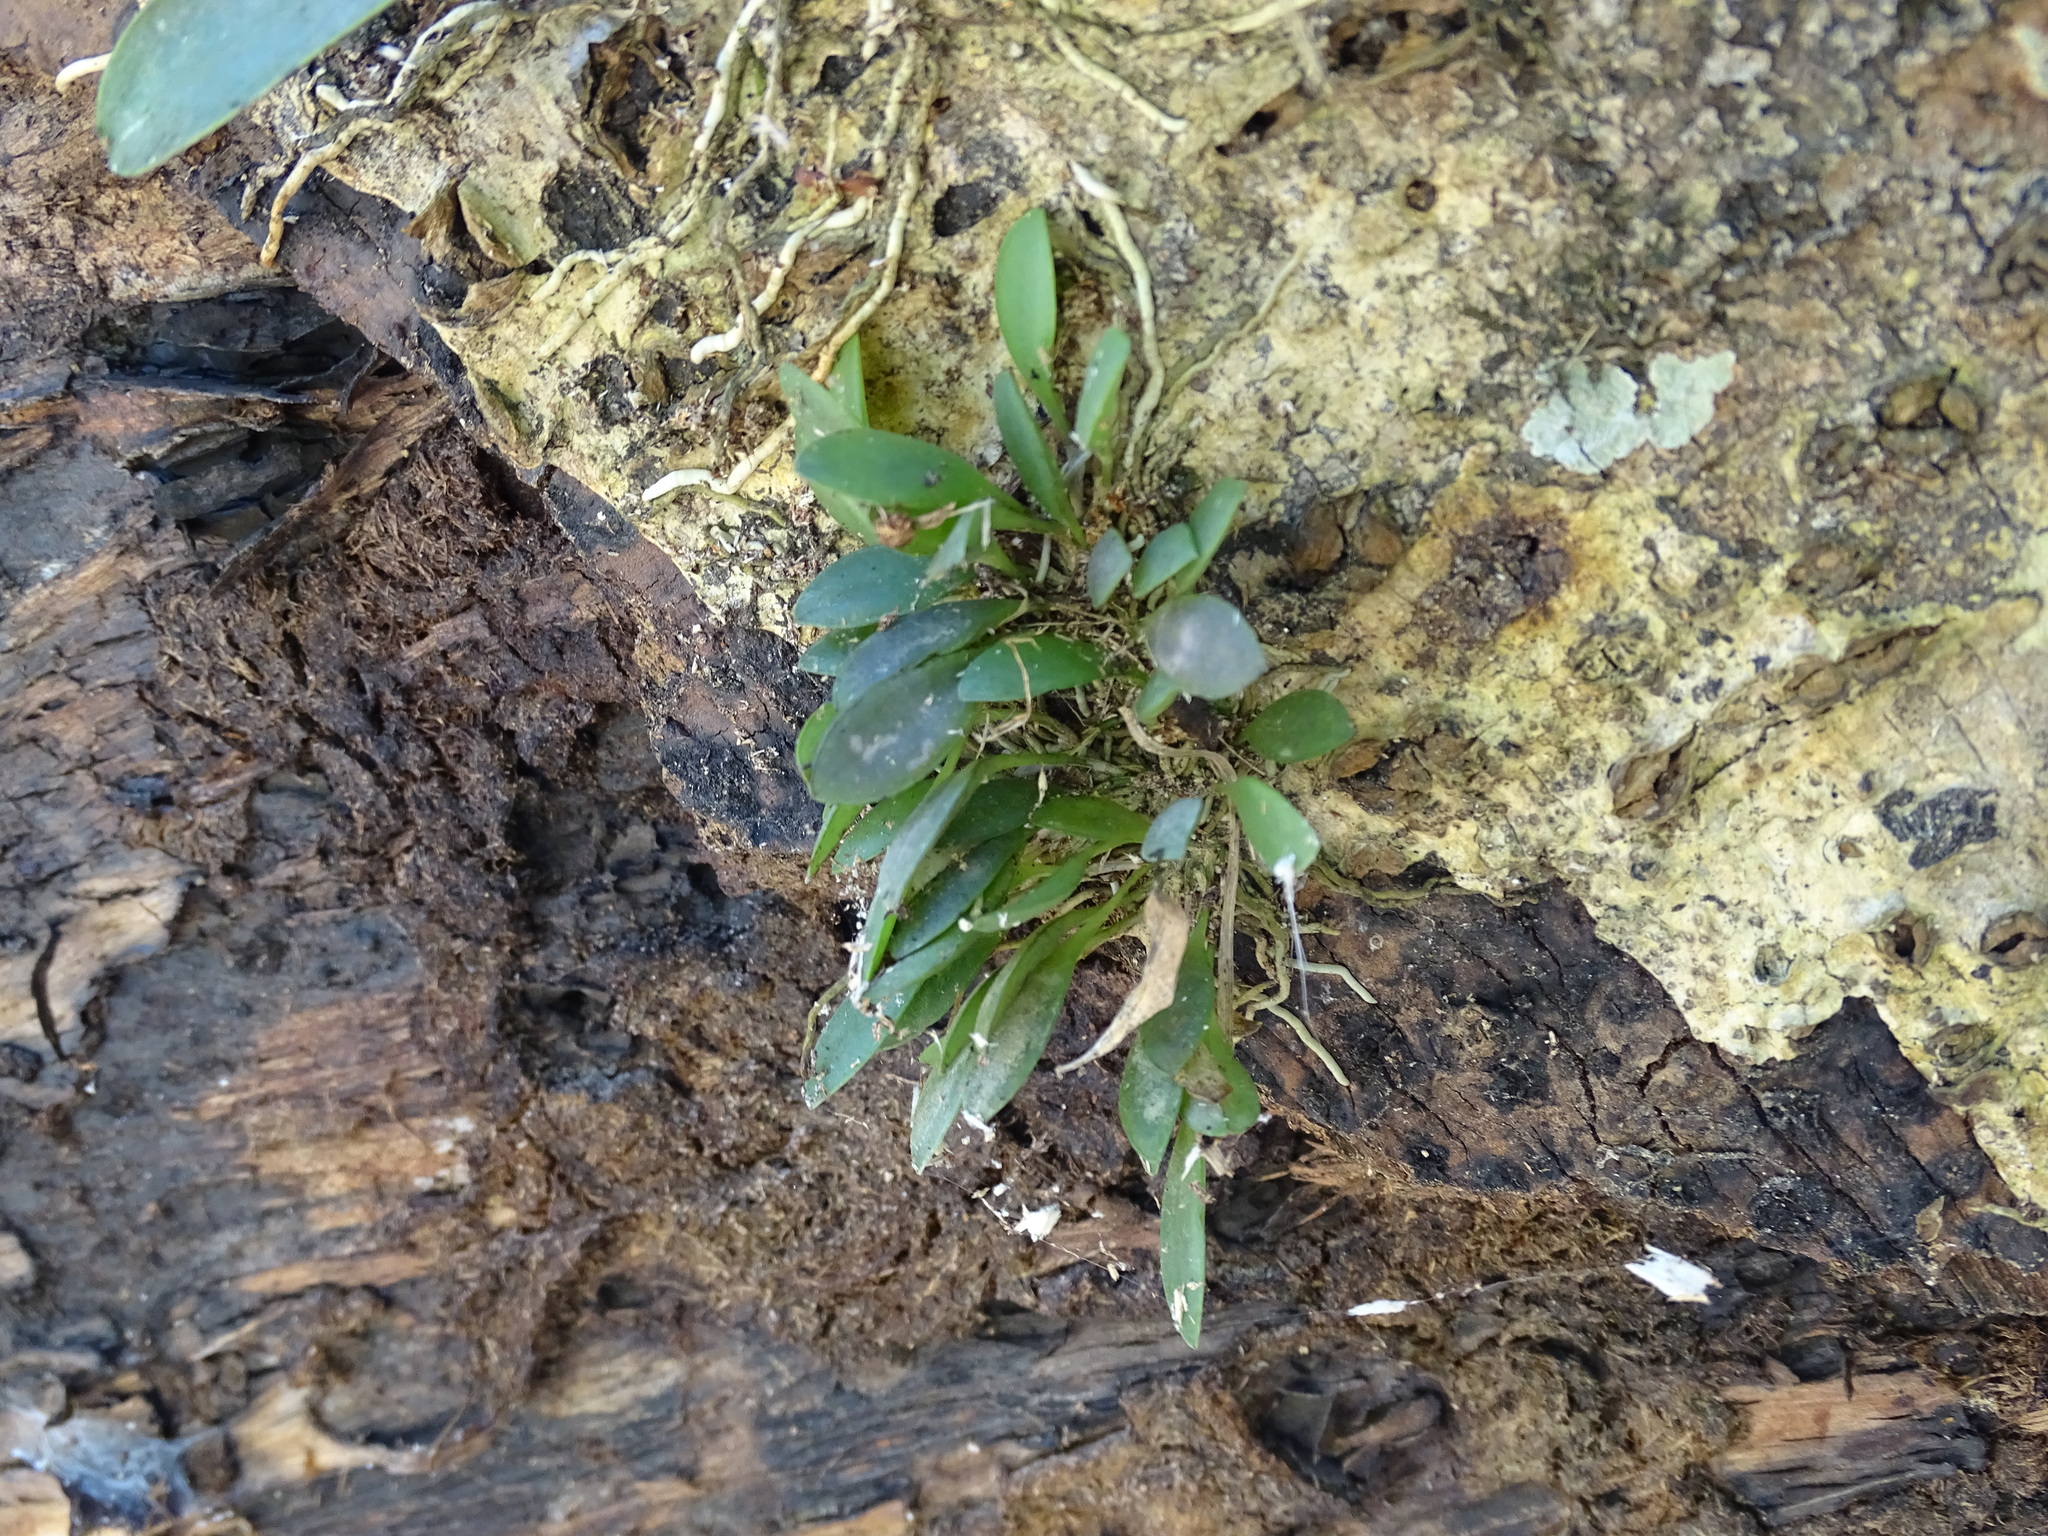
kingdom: Plantae
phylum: Tracheophyta
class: Liliopsida
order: Asparagales
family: Orchidaceae
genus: Specklinia
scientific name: Specklinia picta
